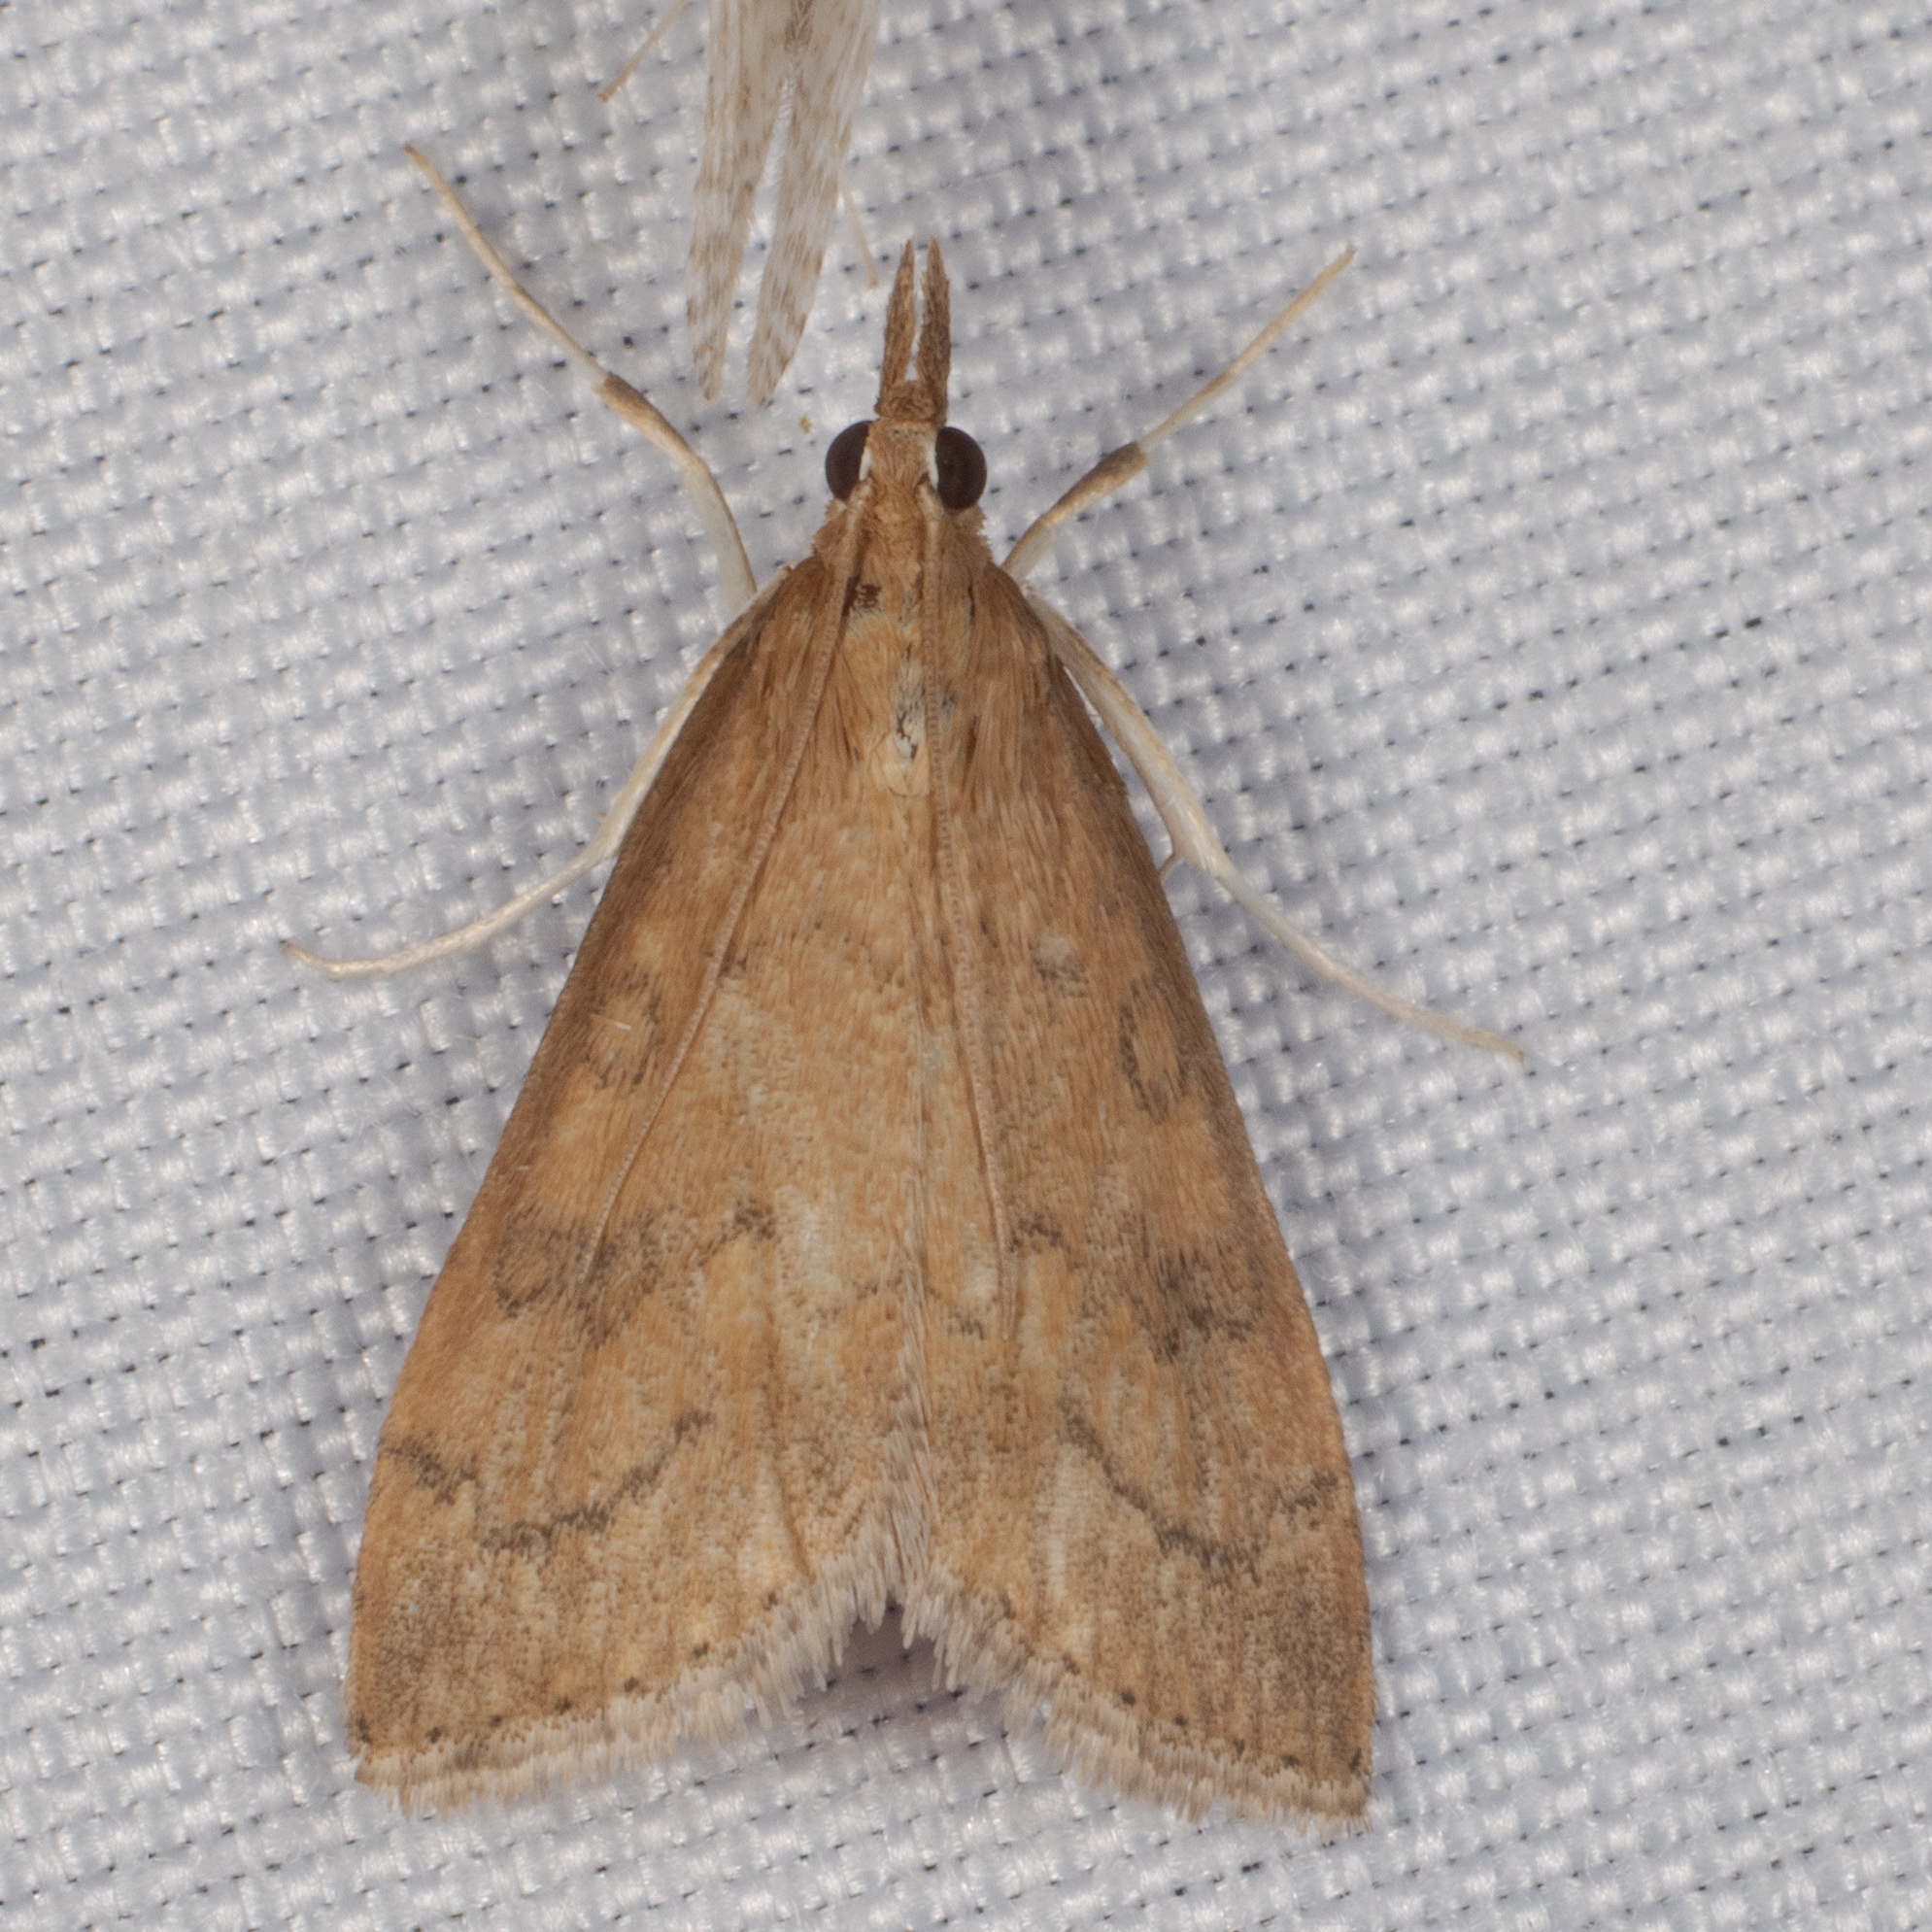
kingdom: Animalia
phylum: Arthropoda
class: Insecta
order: Lepidoptera
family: Crambidae
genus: Udea
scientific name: Udea rubigalis
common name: Celery leaftier moth
